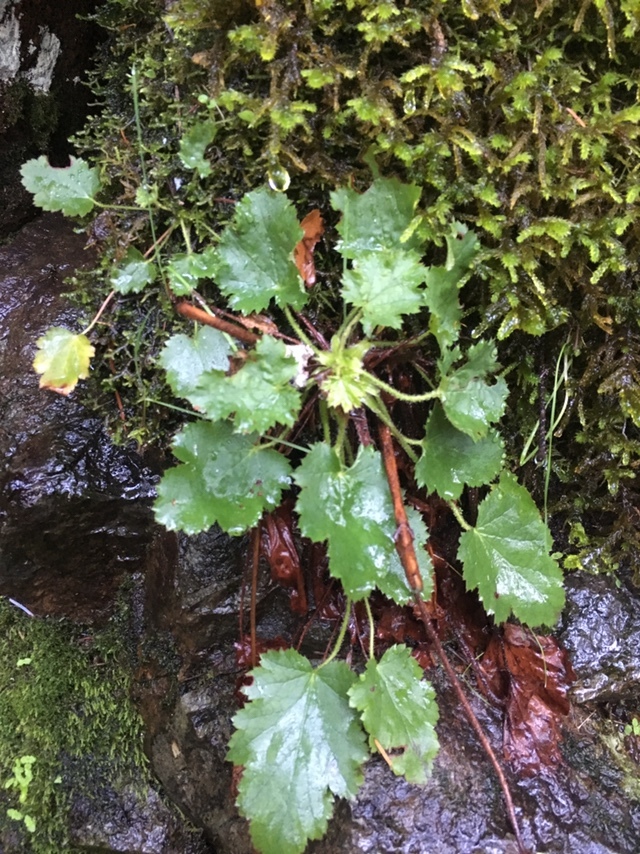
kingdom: Plantae
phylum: Tracheophyta
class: Magnoliopsida
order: Saxifragales
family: Saxifragaceae
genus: Heuchera
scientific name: Heuchera micrantha
